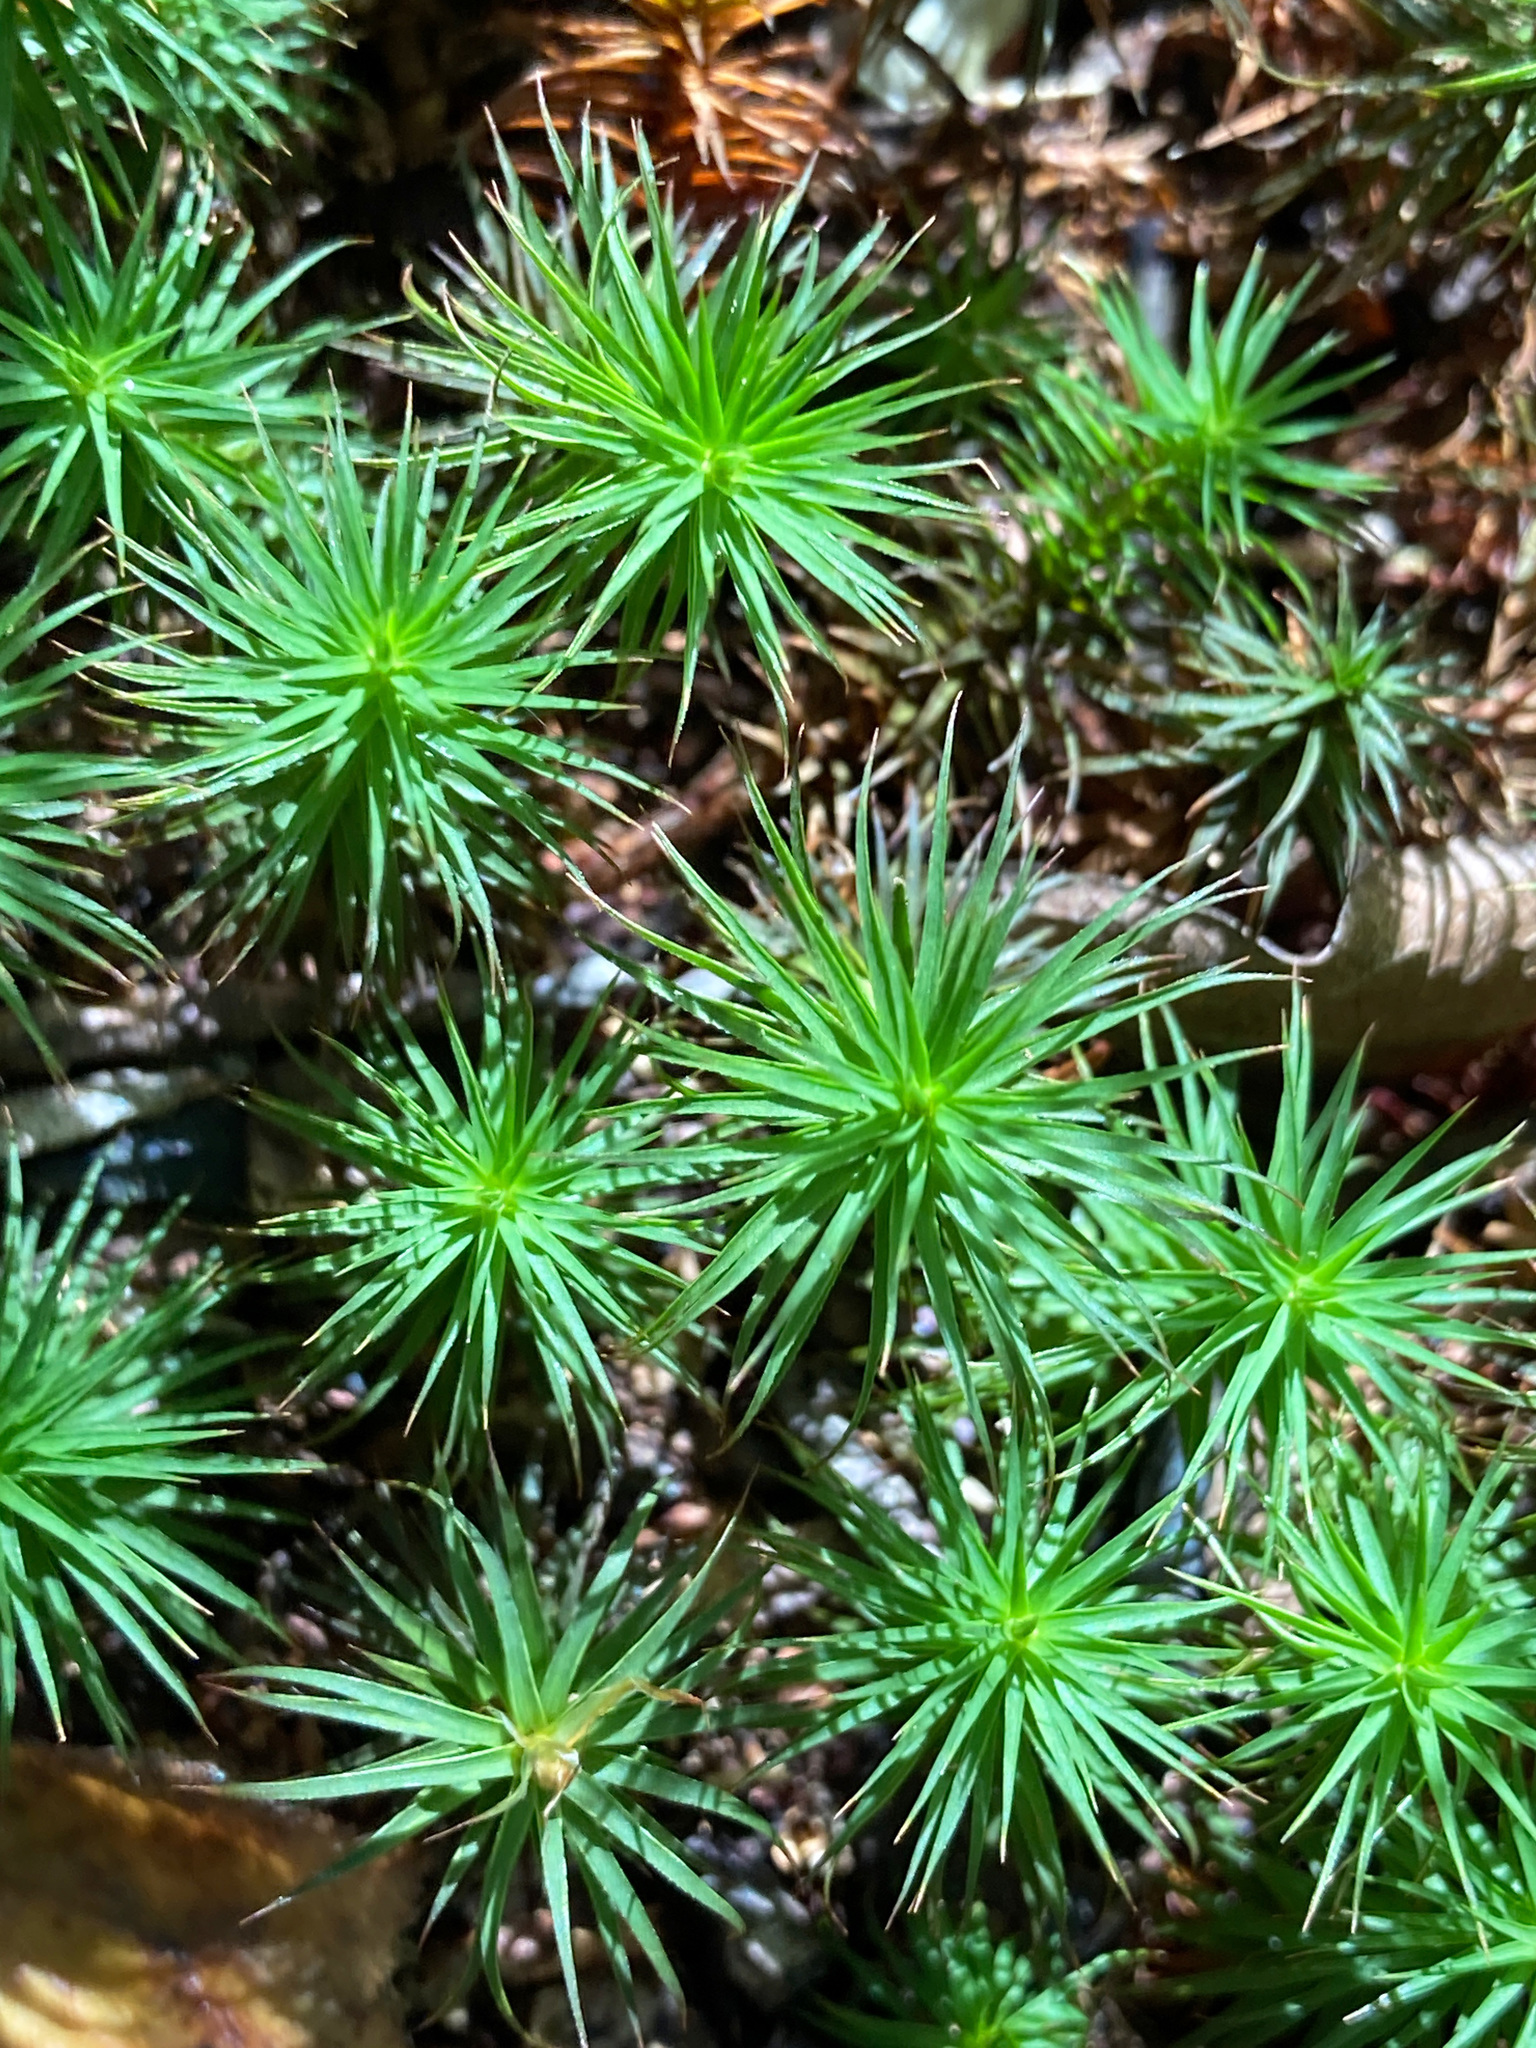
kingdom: Plantae
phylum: Bryophyta
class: Polytrichopsida
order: Polytrichales
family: Polytrichaceae
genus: Polytrichum
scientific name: Polytrichum commune
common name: Common haircap
